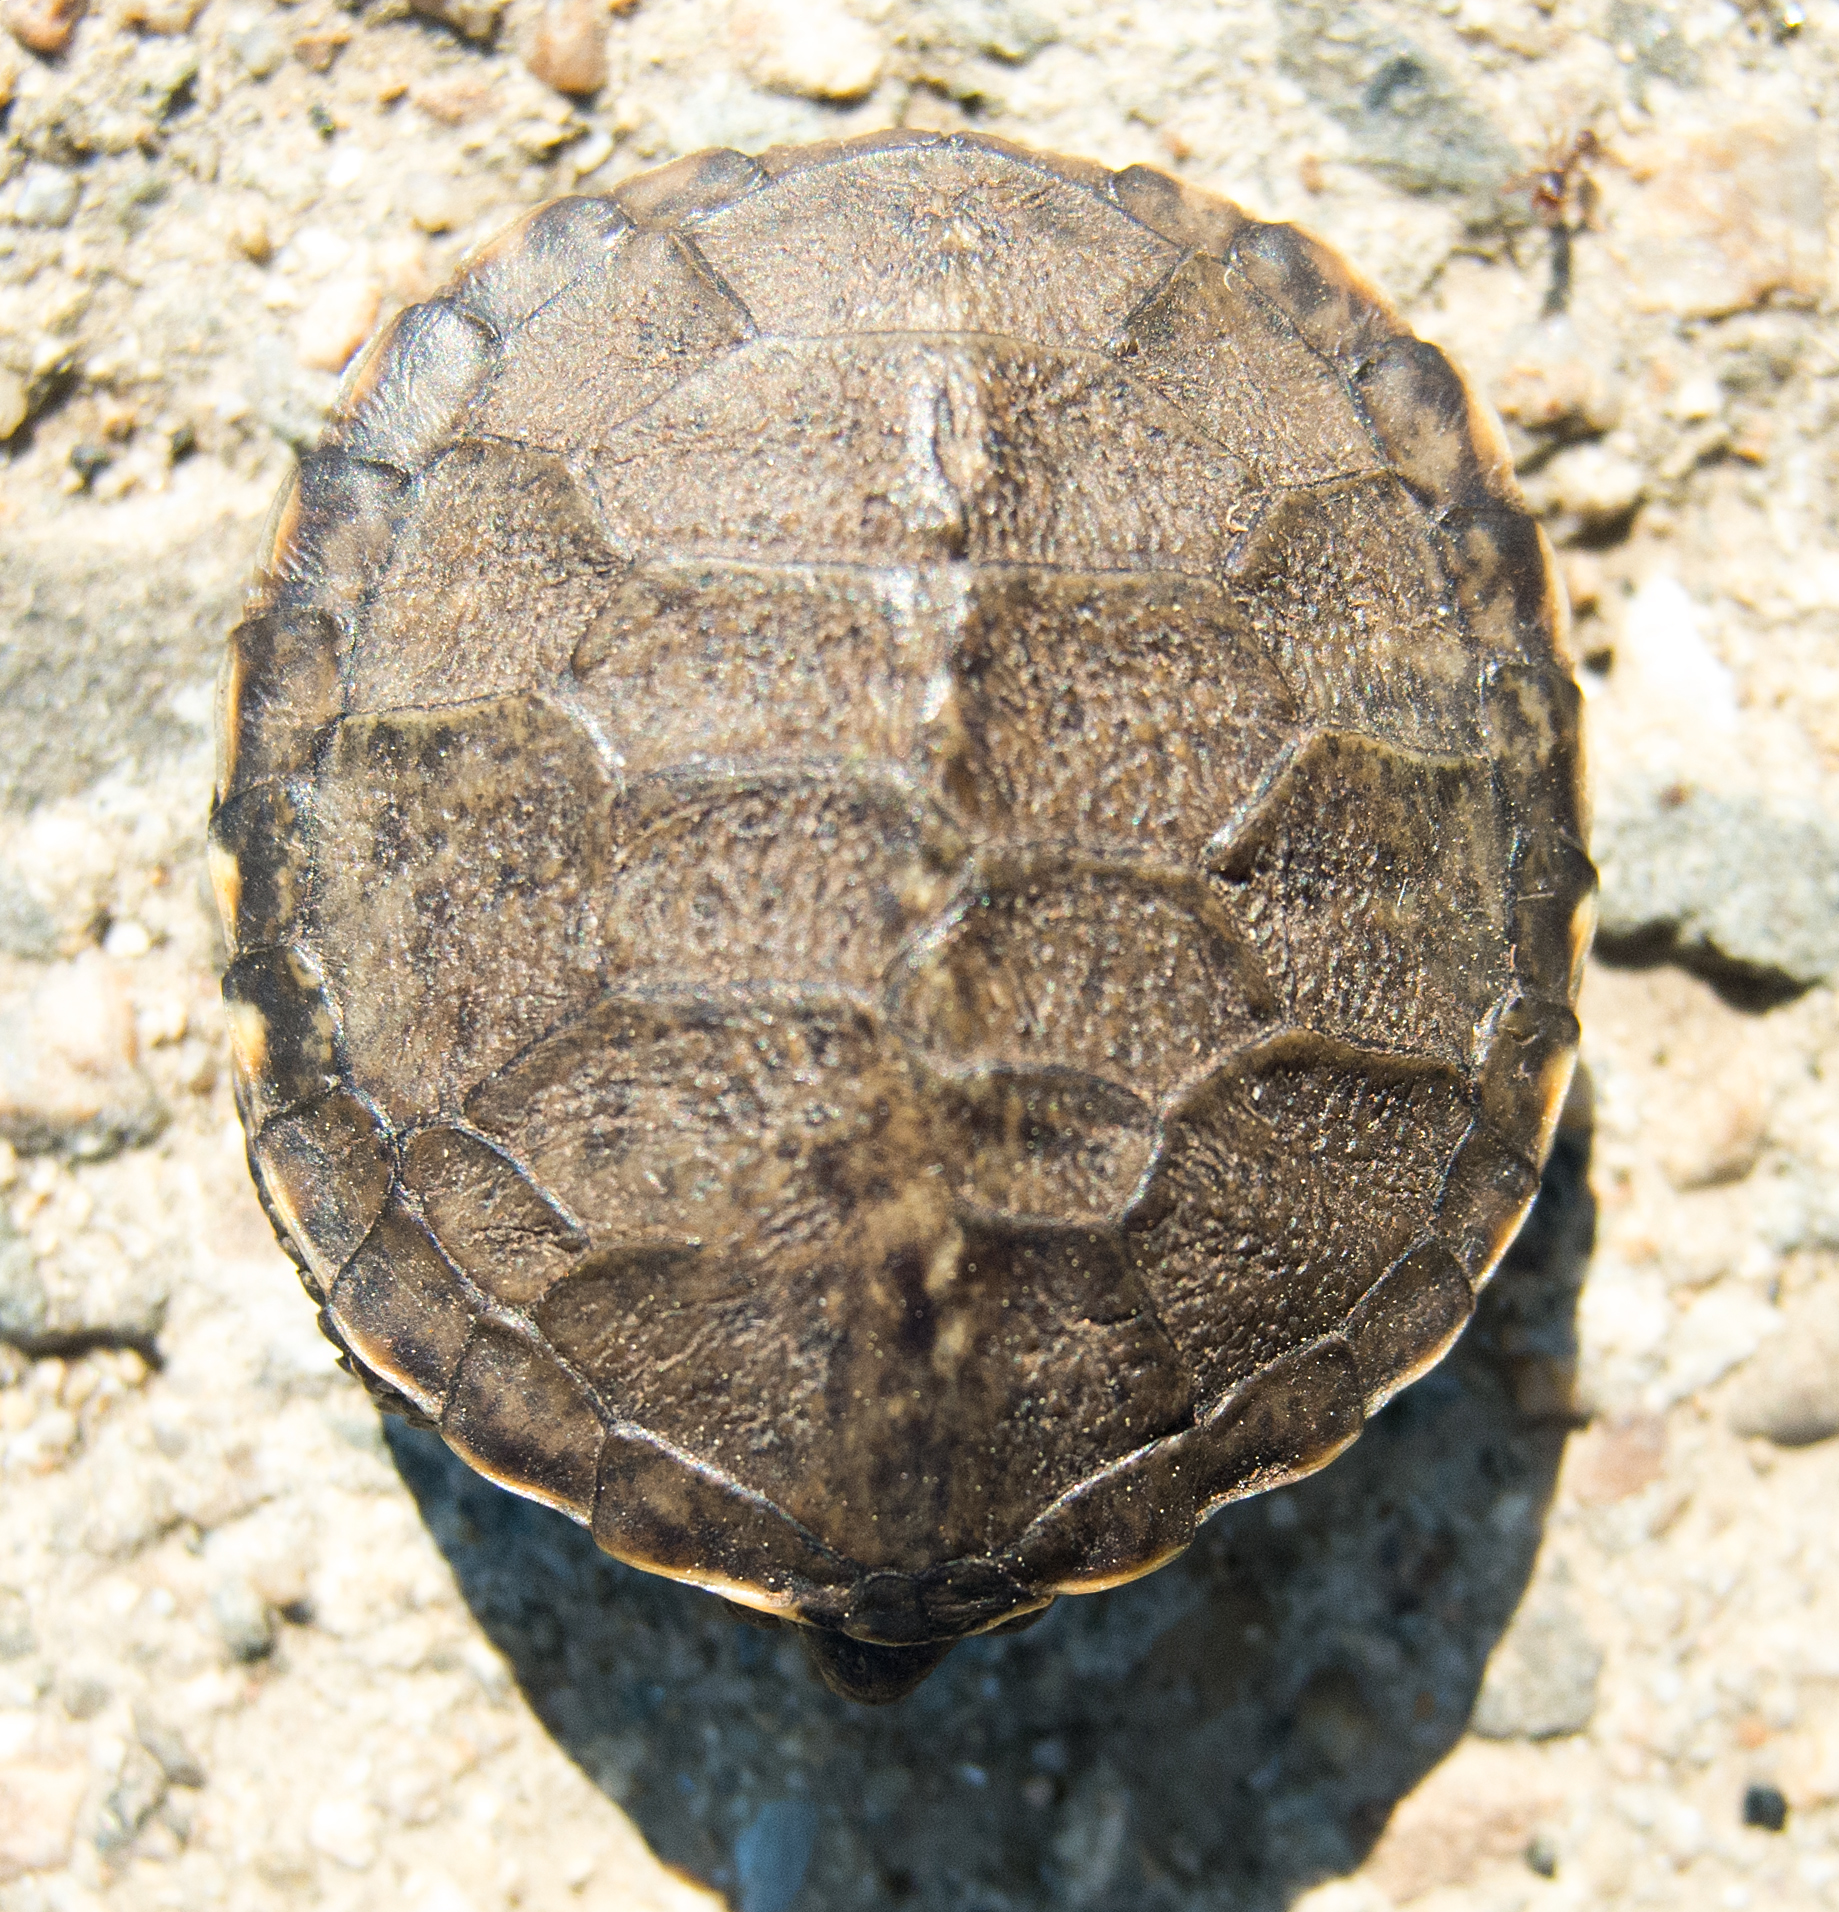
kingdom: Animalia
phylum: Chordata
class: Testudines
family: Emydidae
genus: Emys
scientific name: Emys orbicularis
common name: European pond turtle
